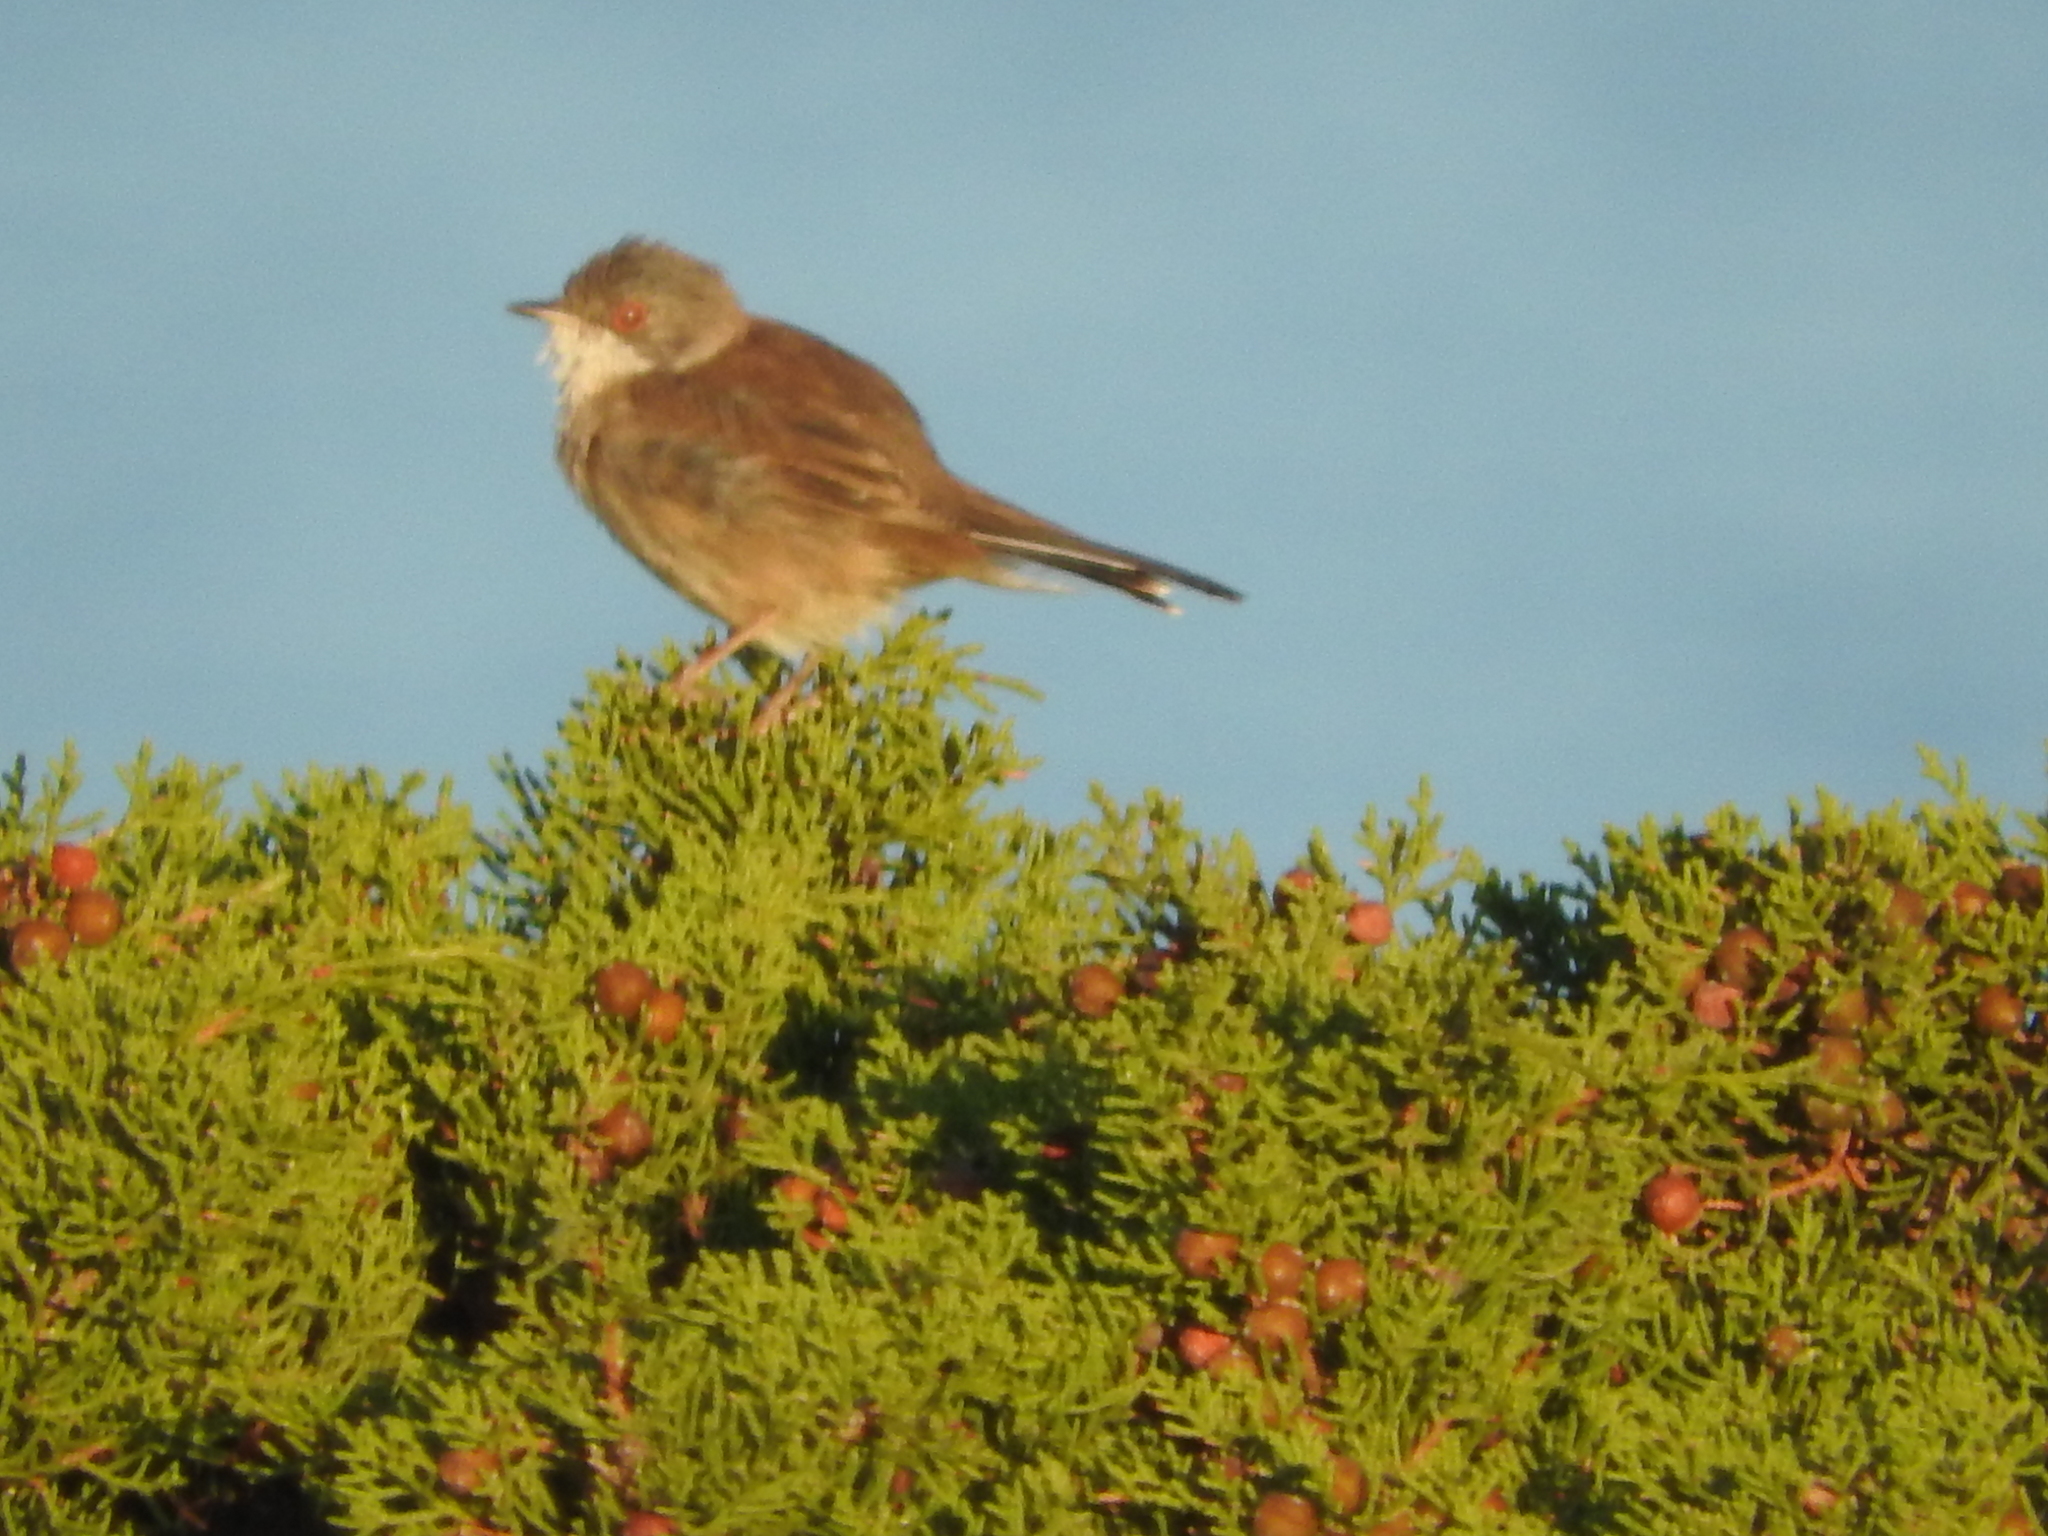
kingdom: Animalia
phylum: Chordata
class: Aves
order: Passeriformes
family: Sylviidae
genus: Curruca
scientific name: Curruca melanocephala
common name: Sardinian warbler
